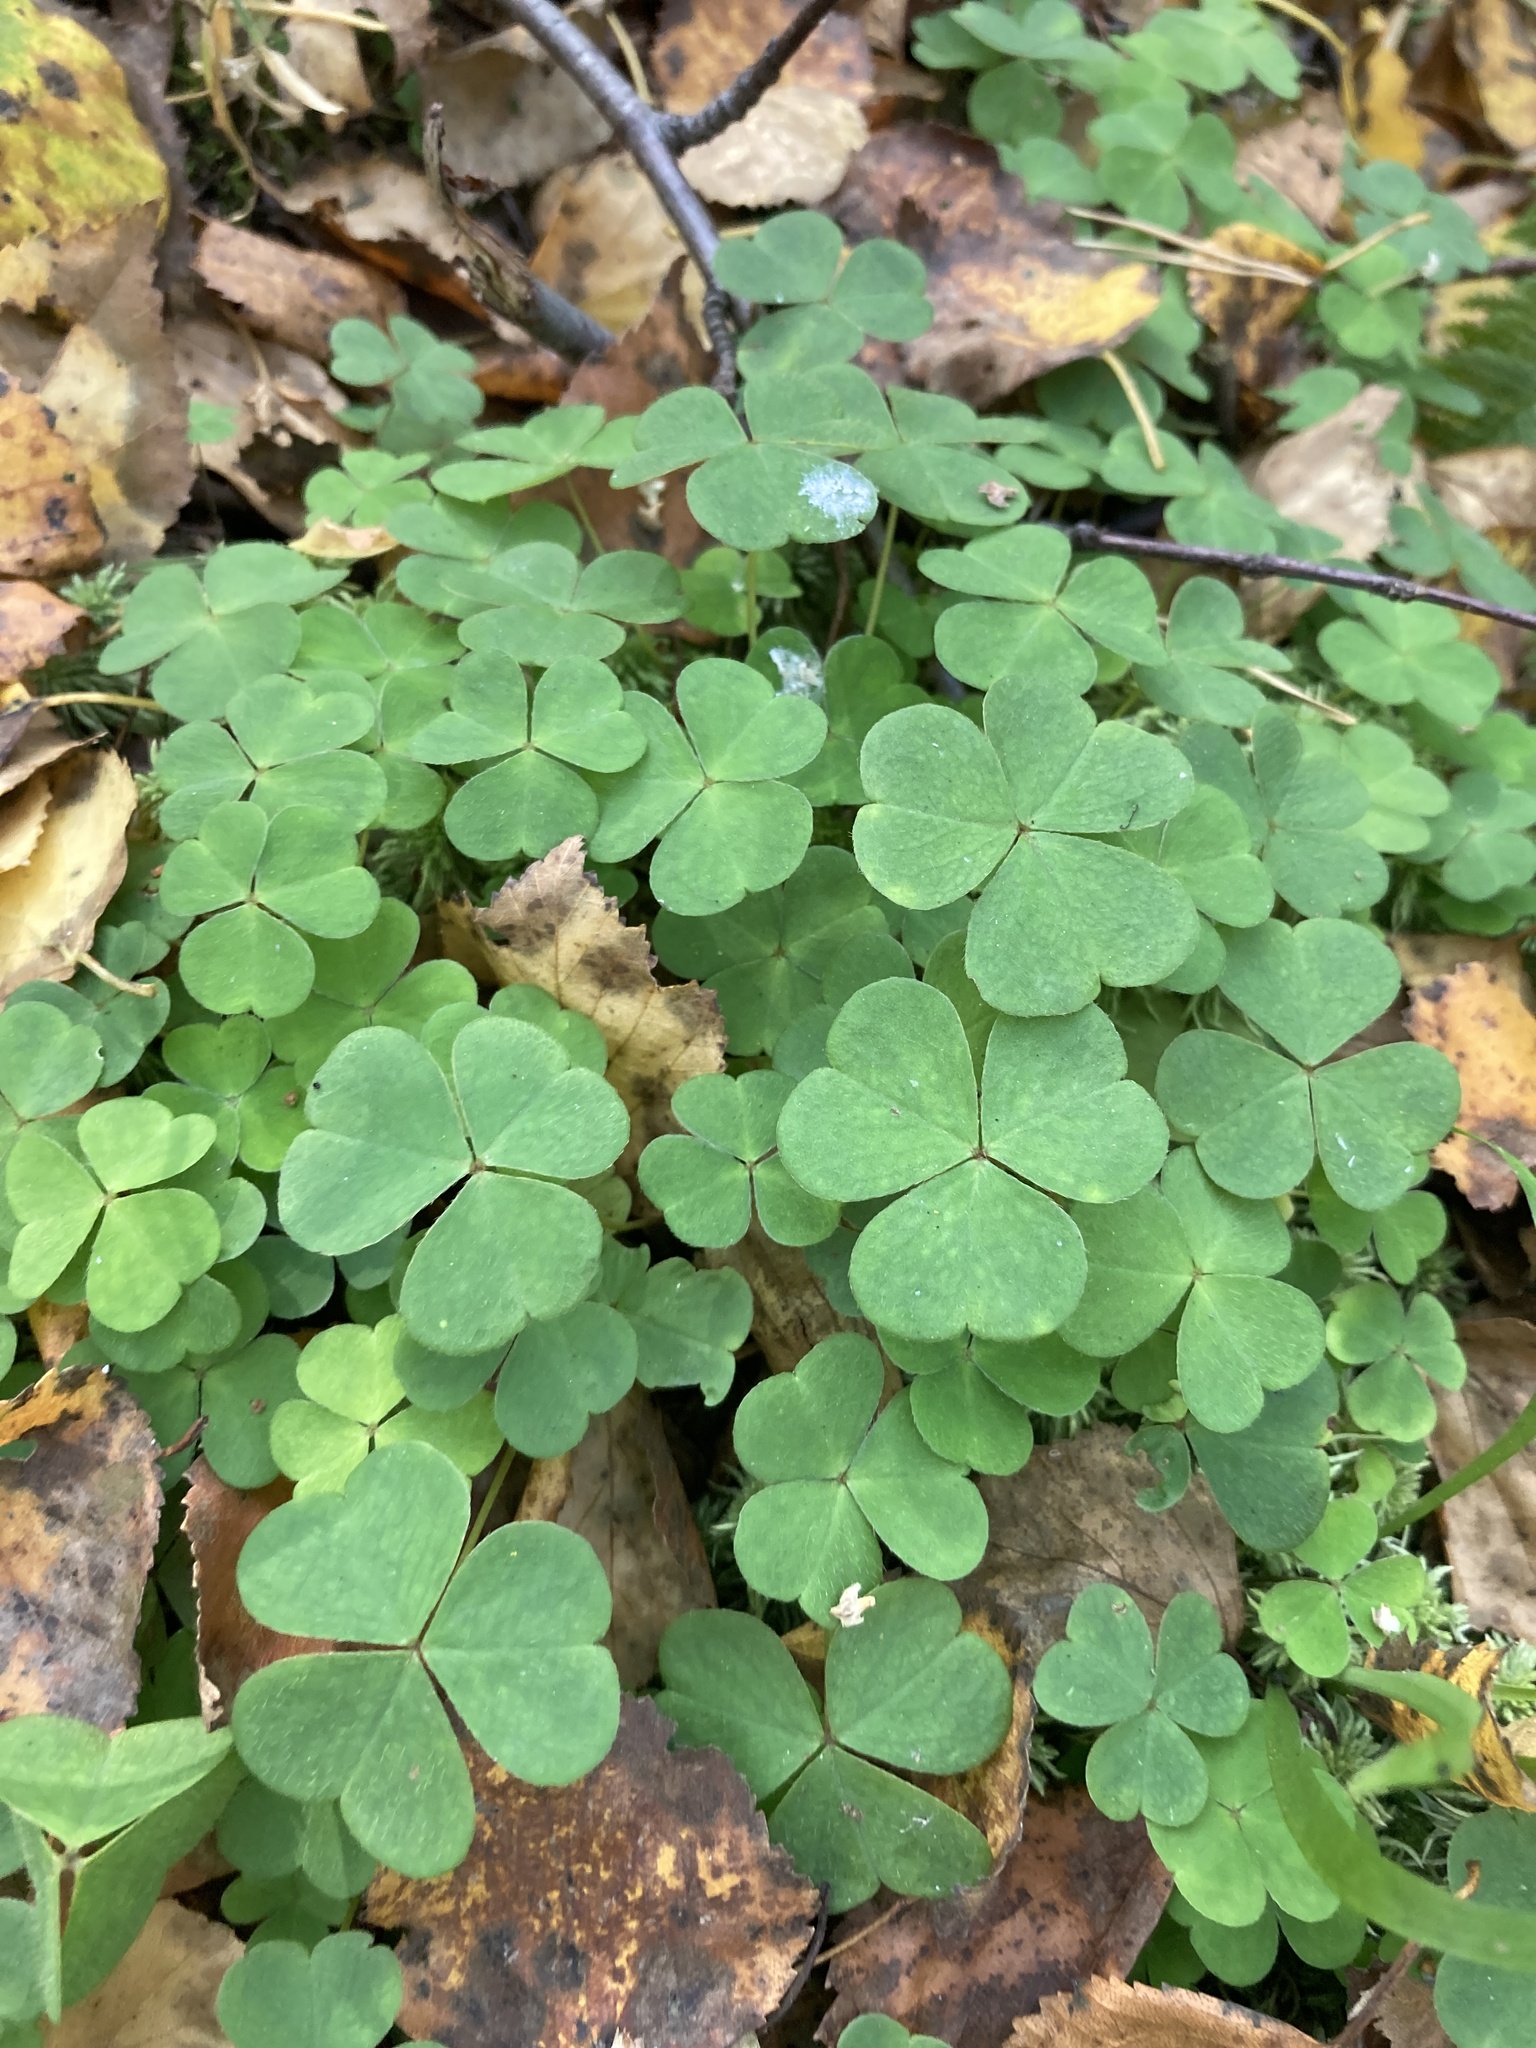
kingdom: Plantae
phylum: Tracheophyta
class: Magnoliopsida
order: Oxalidales
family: Oxalidaceae
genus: Oxalis
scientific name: Oxalis acetosella
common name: Wood-sorrel
